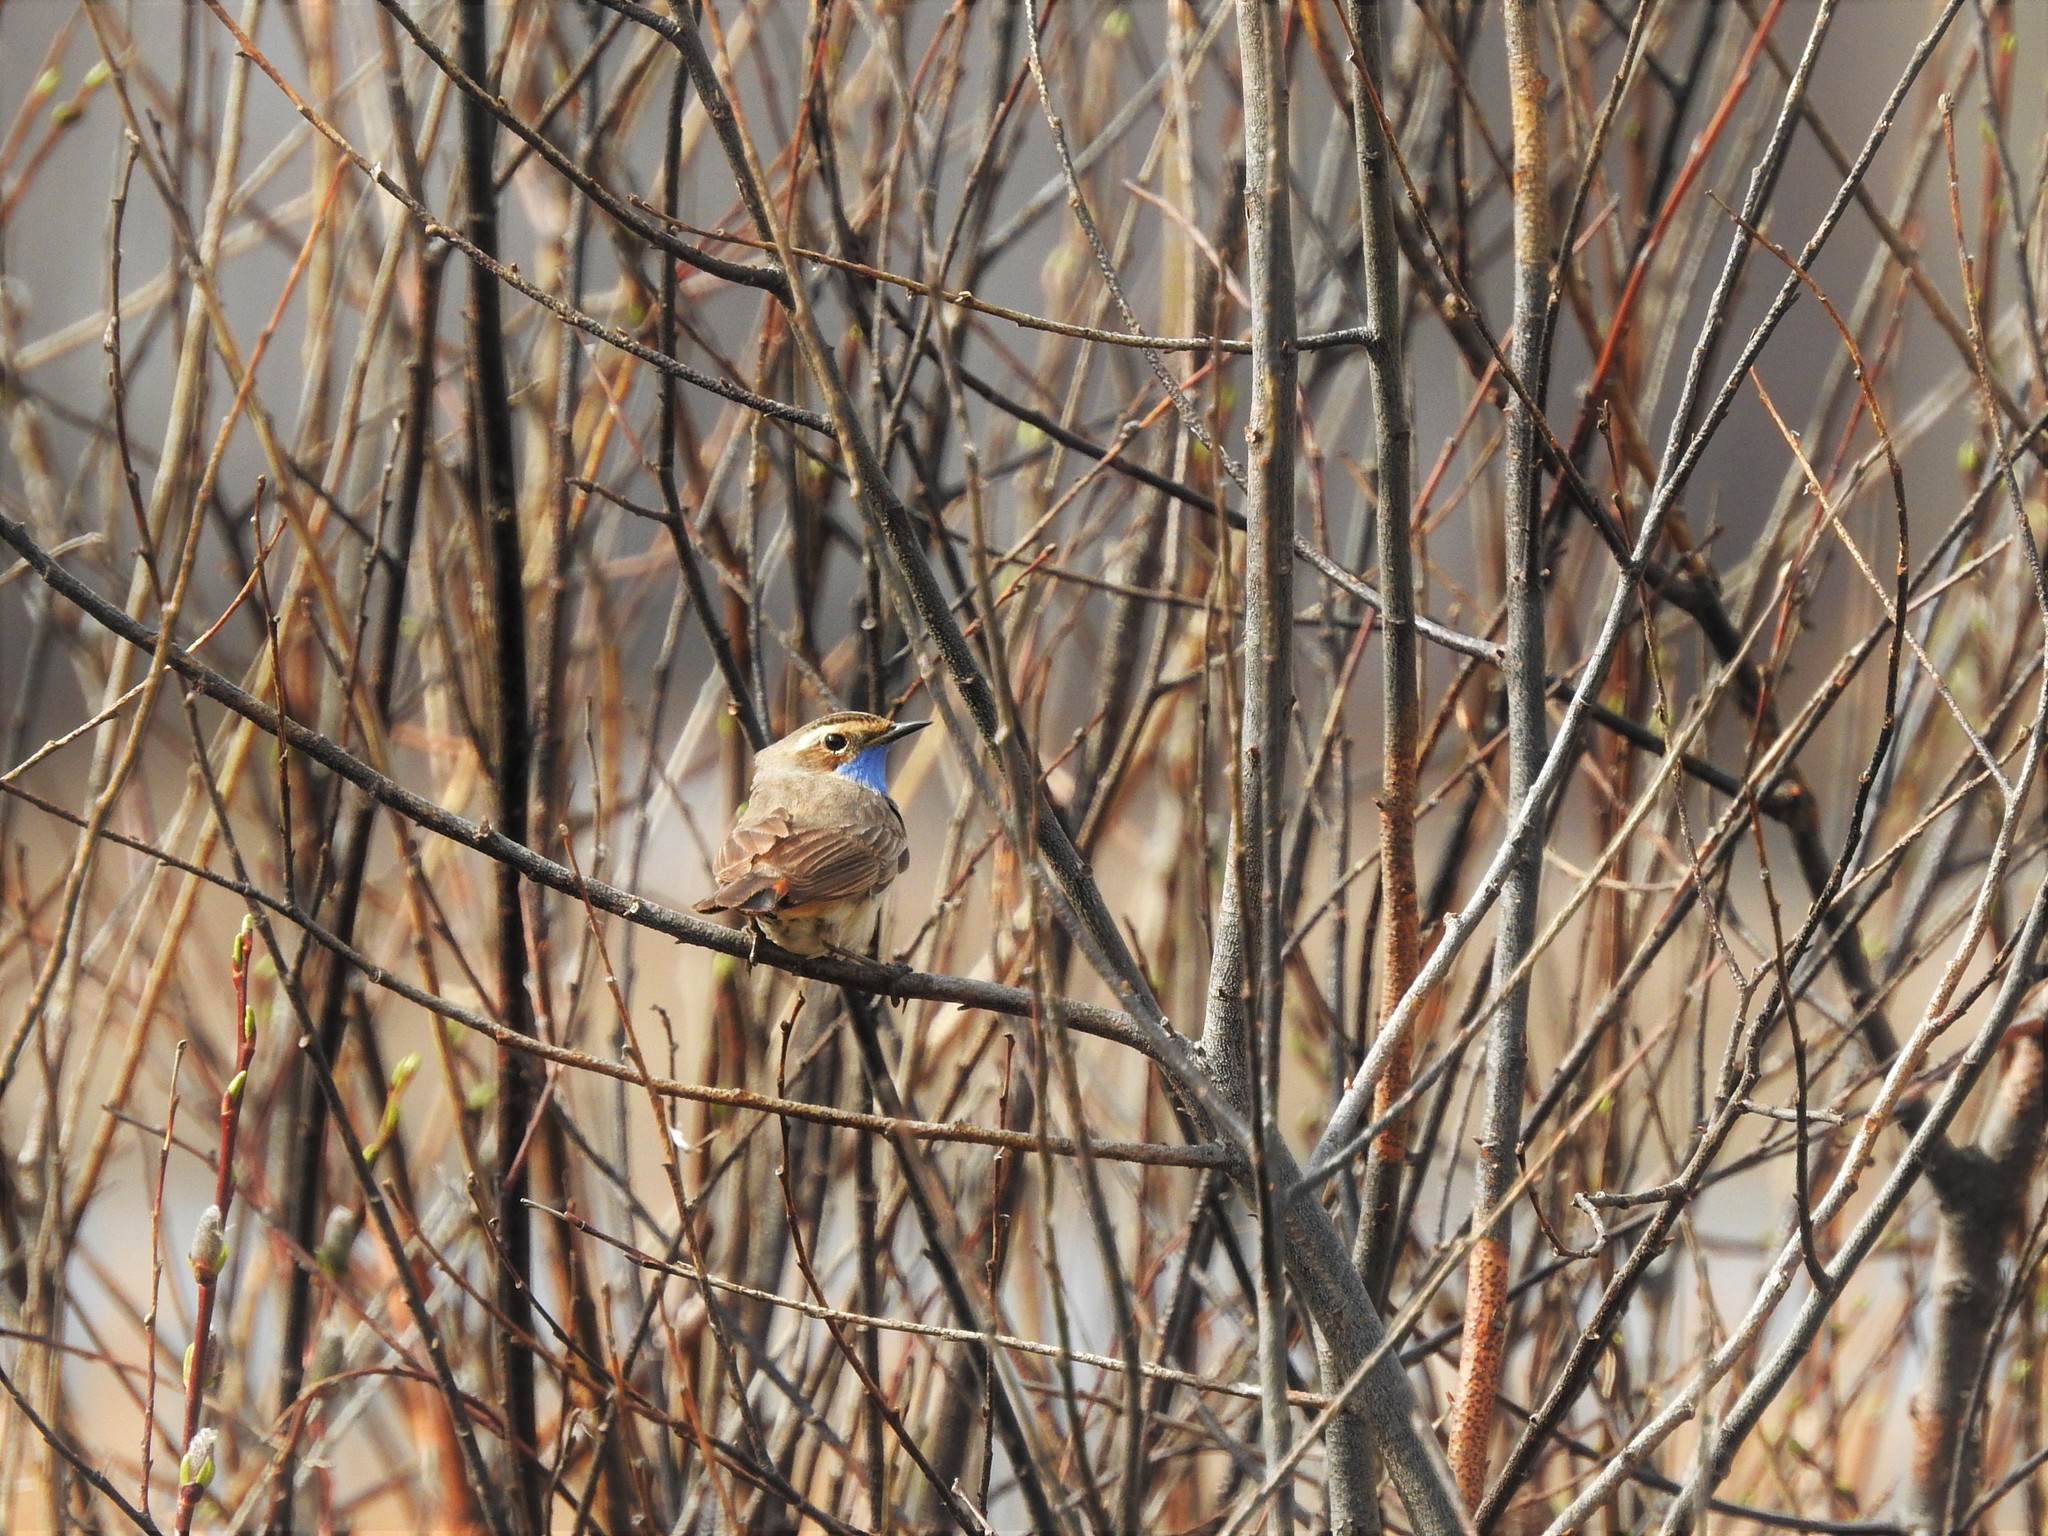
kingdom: Animalia
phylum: Chordata
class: Aves
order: Passeriformes
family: Muscicapidae
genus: Luscinia
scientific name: Luscinia svecica
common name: Bluethroat
